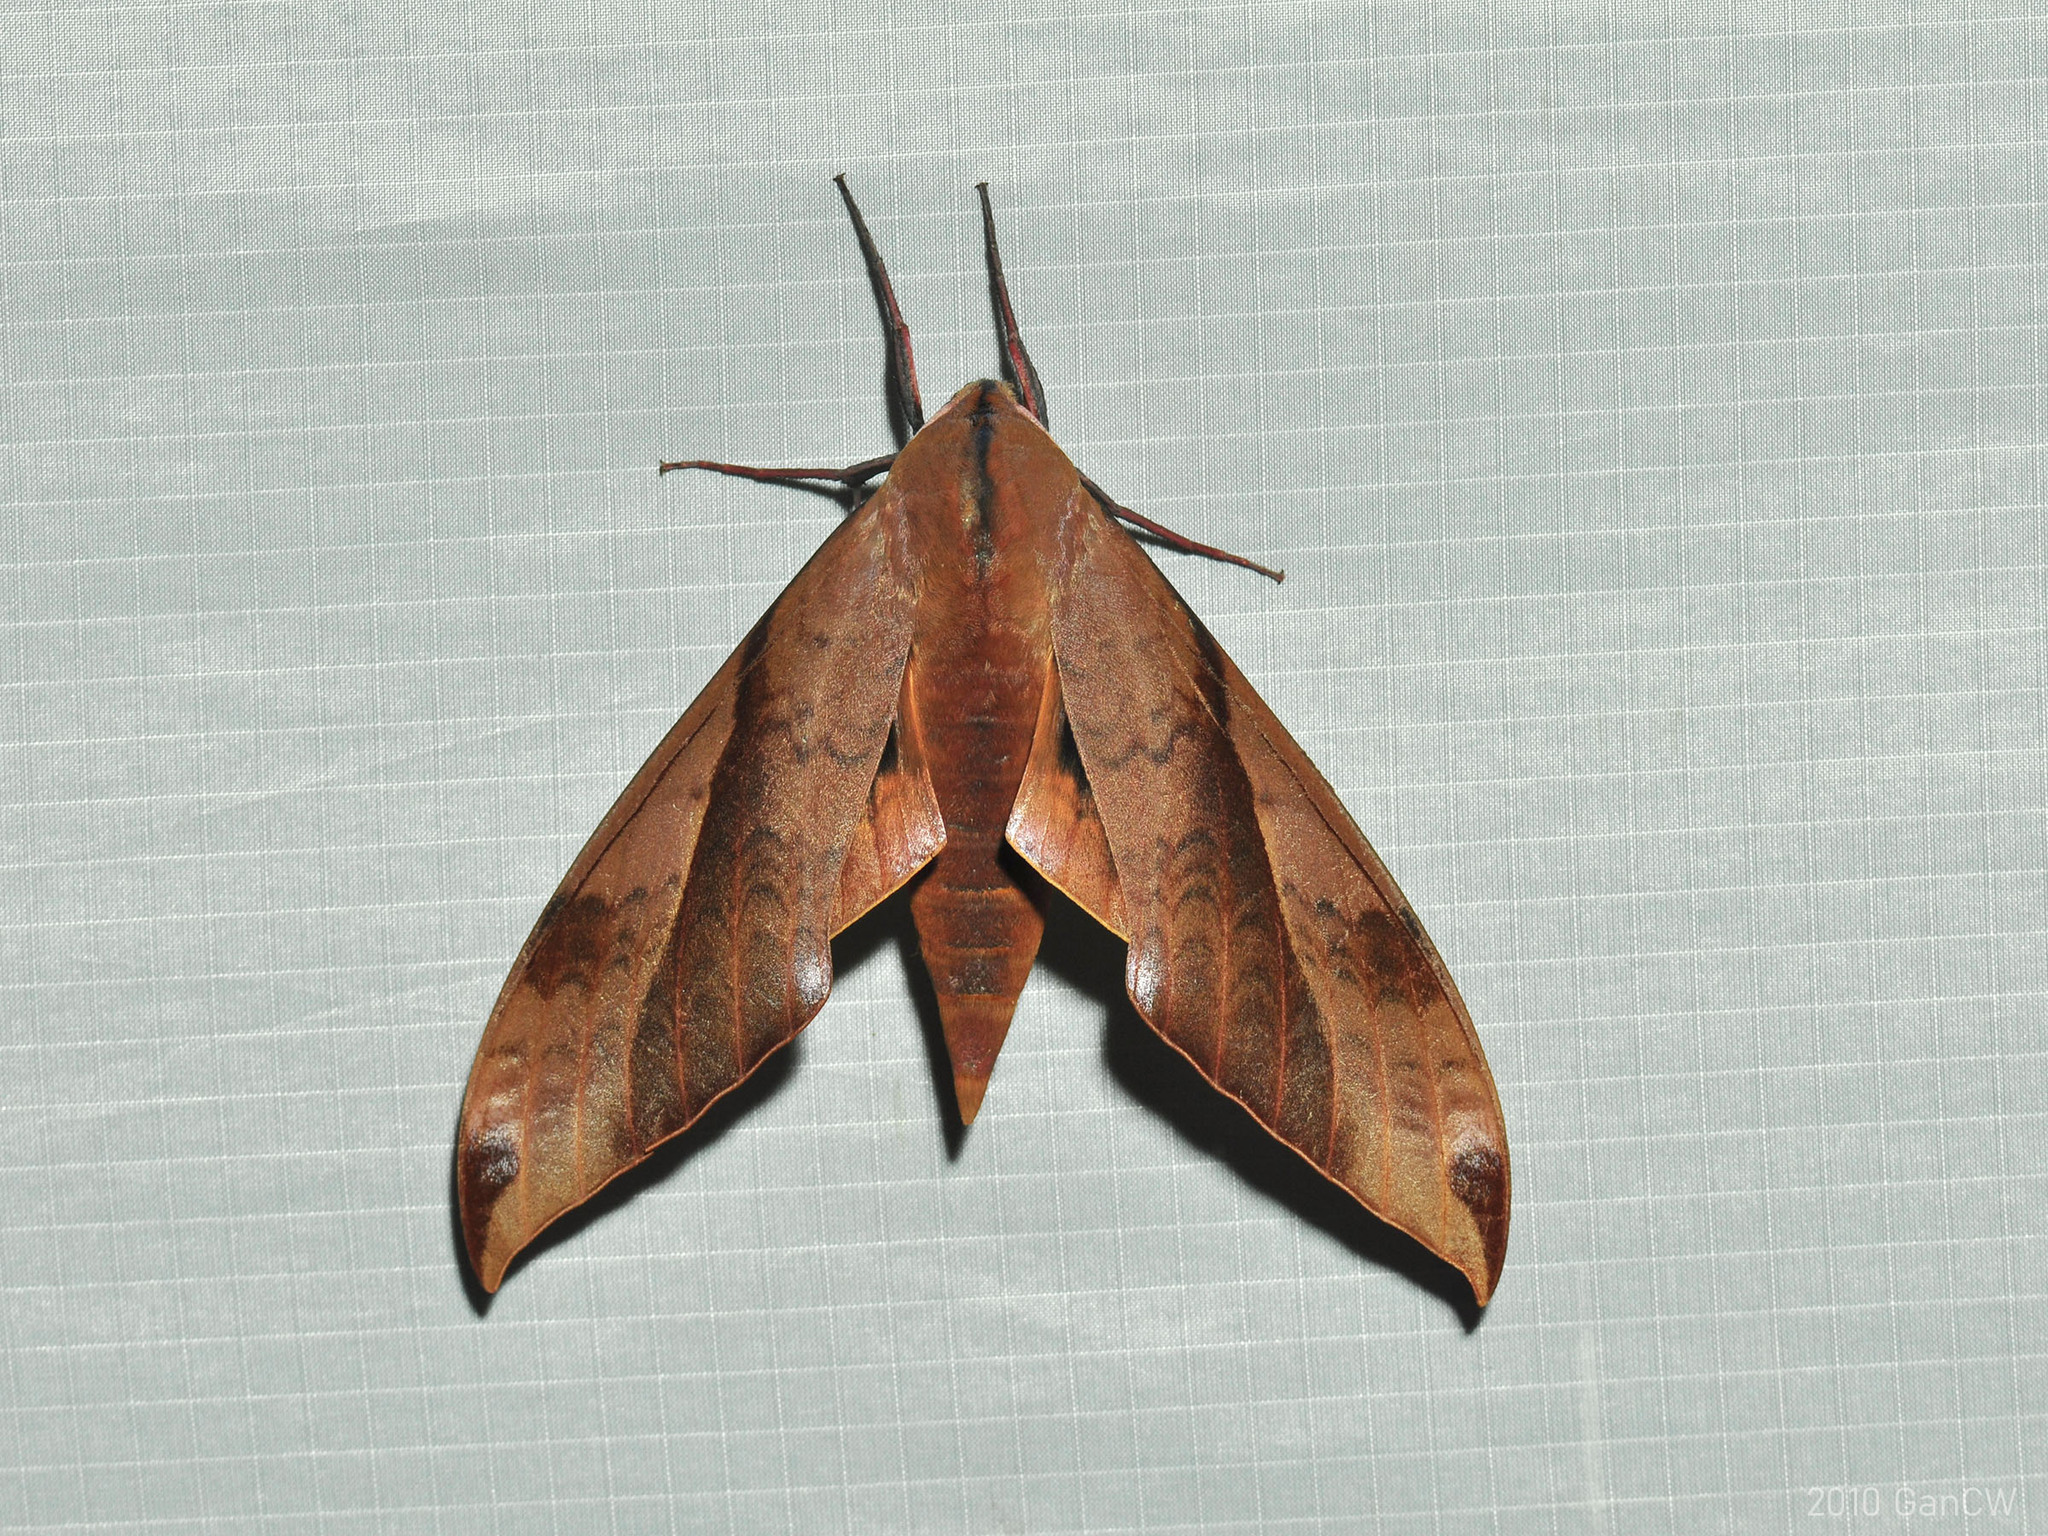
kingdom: Animalia
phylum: Arthropoda
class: Insecta
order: Lepidoptera
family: Sphingidae
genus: Clanis
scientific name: Clanis undulosa
